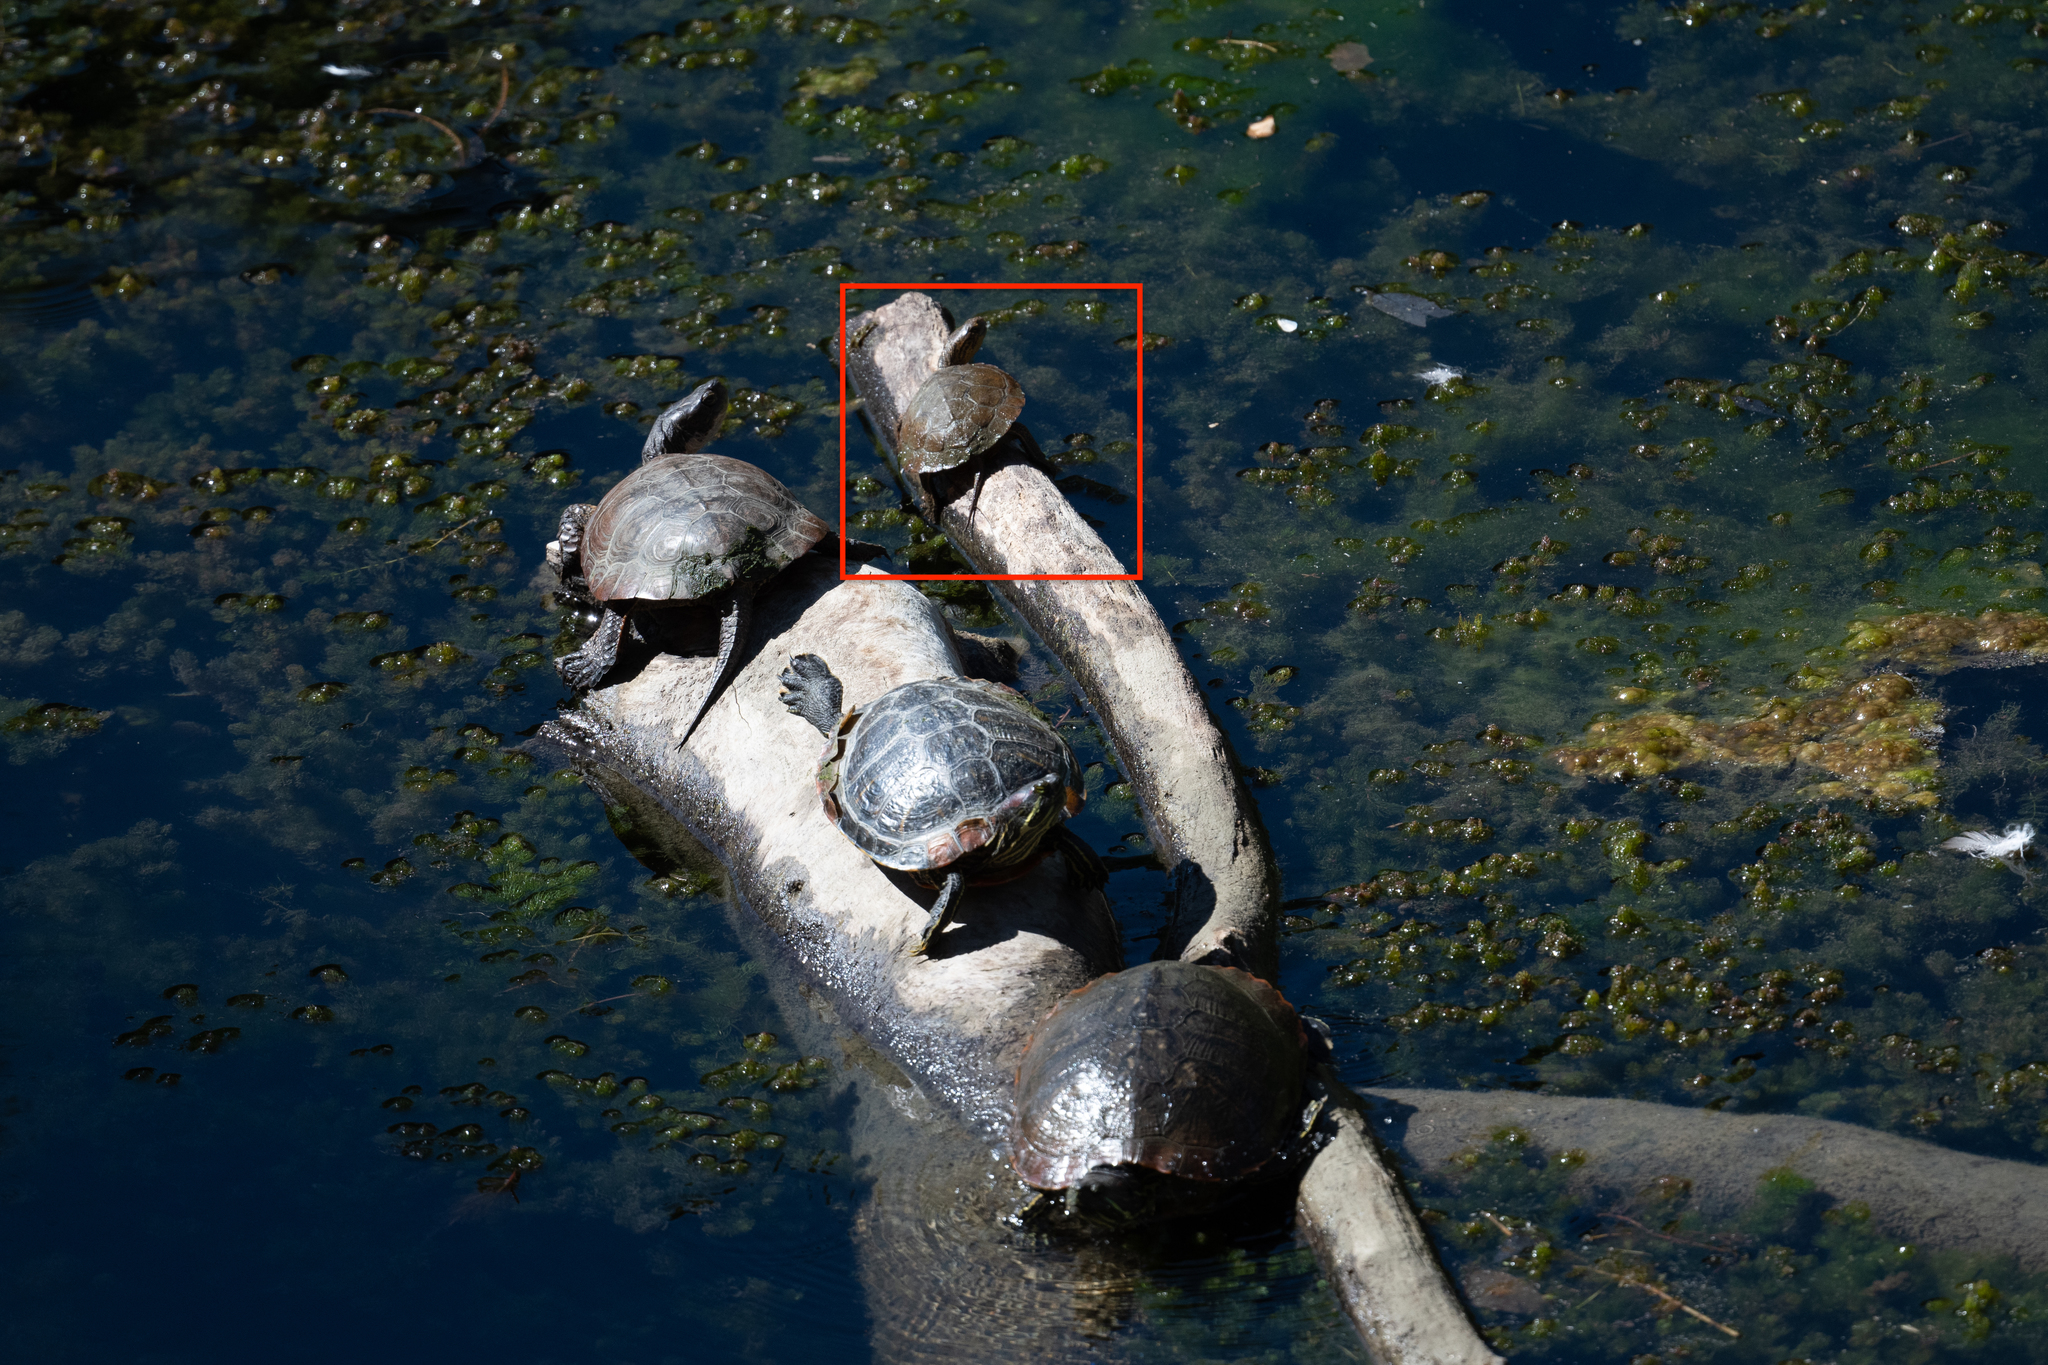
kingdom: Animalia
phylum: Chordata
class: Testudines
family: Emydidae
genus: Actinemys
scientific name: Actinemys marmorata
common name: Western pond turtle
